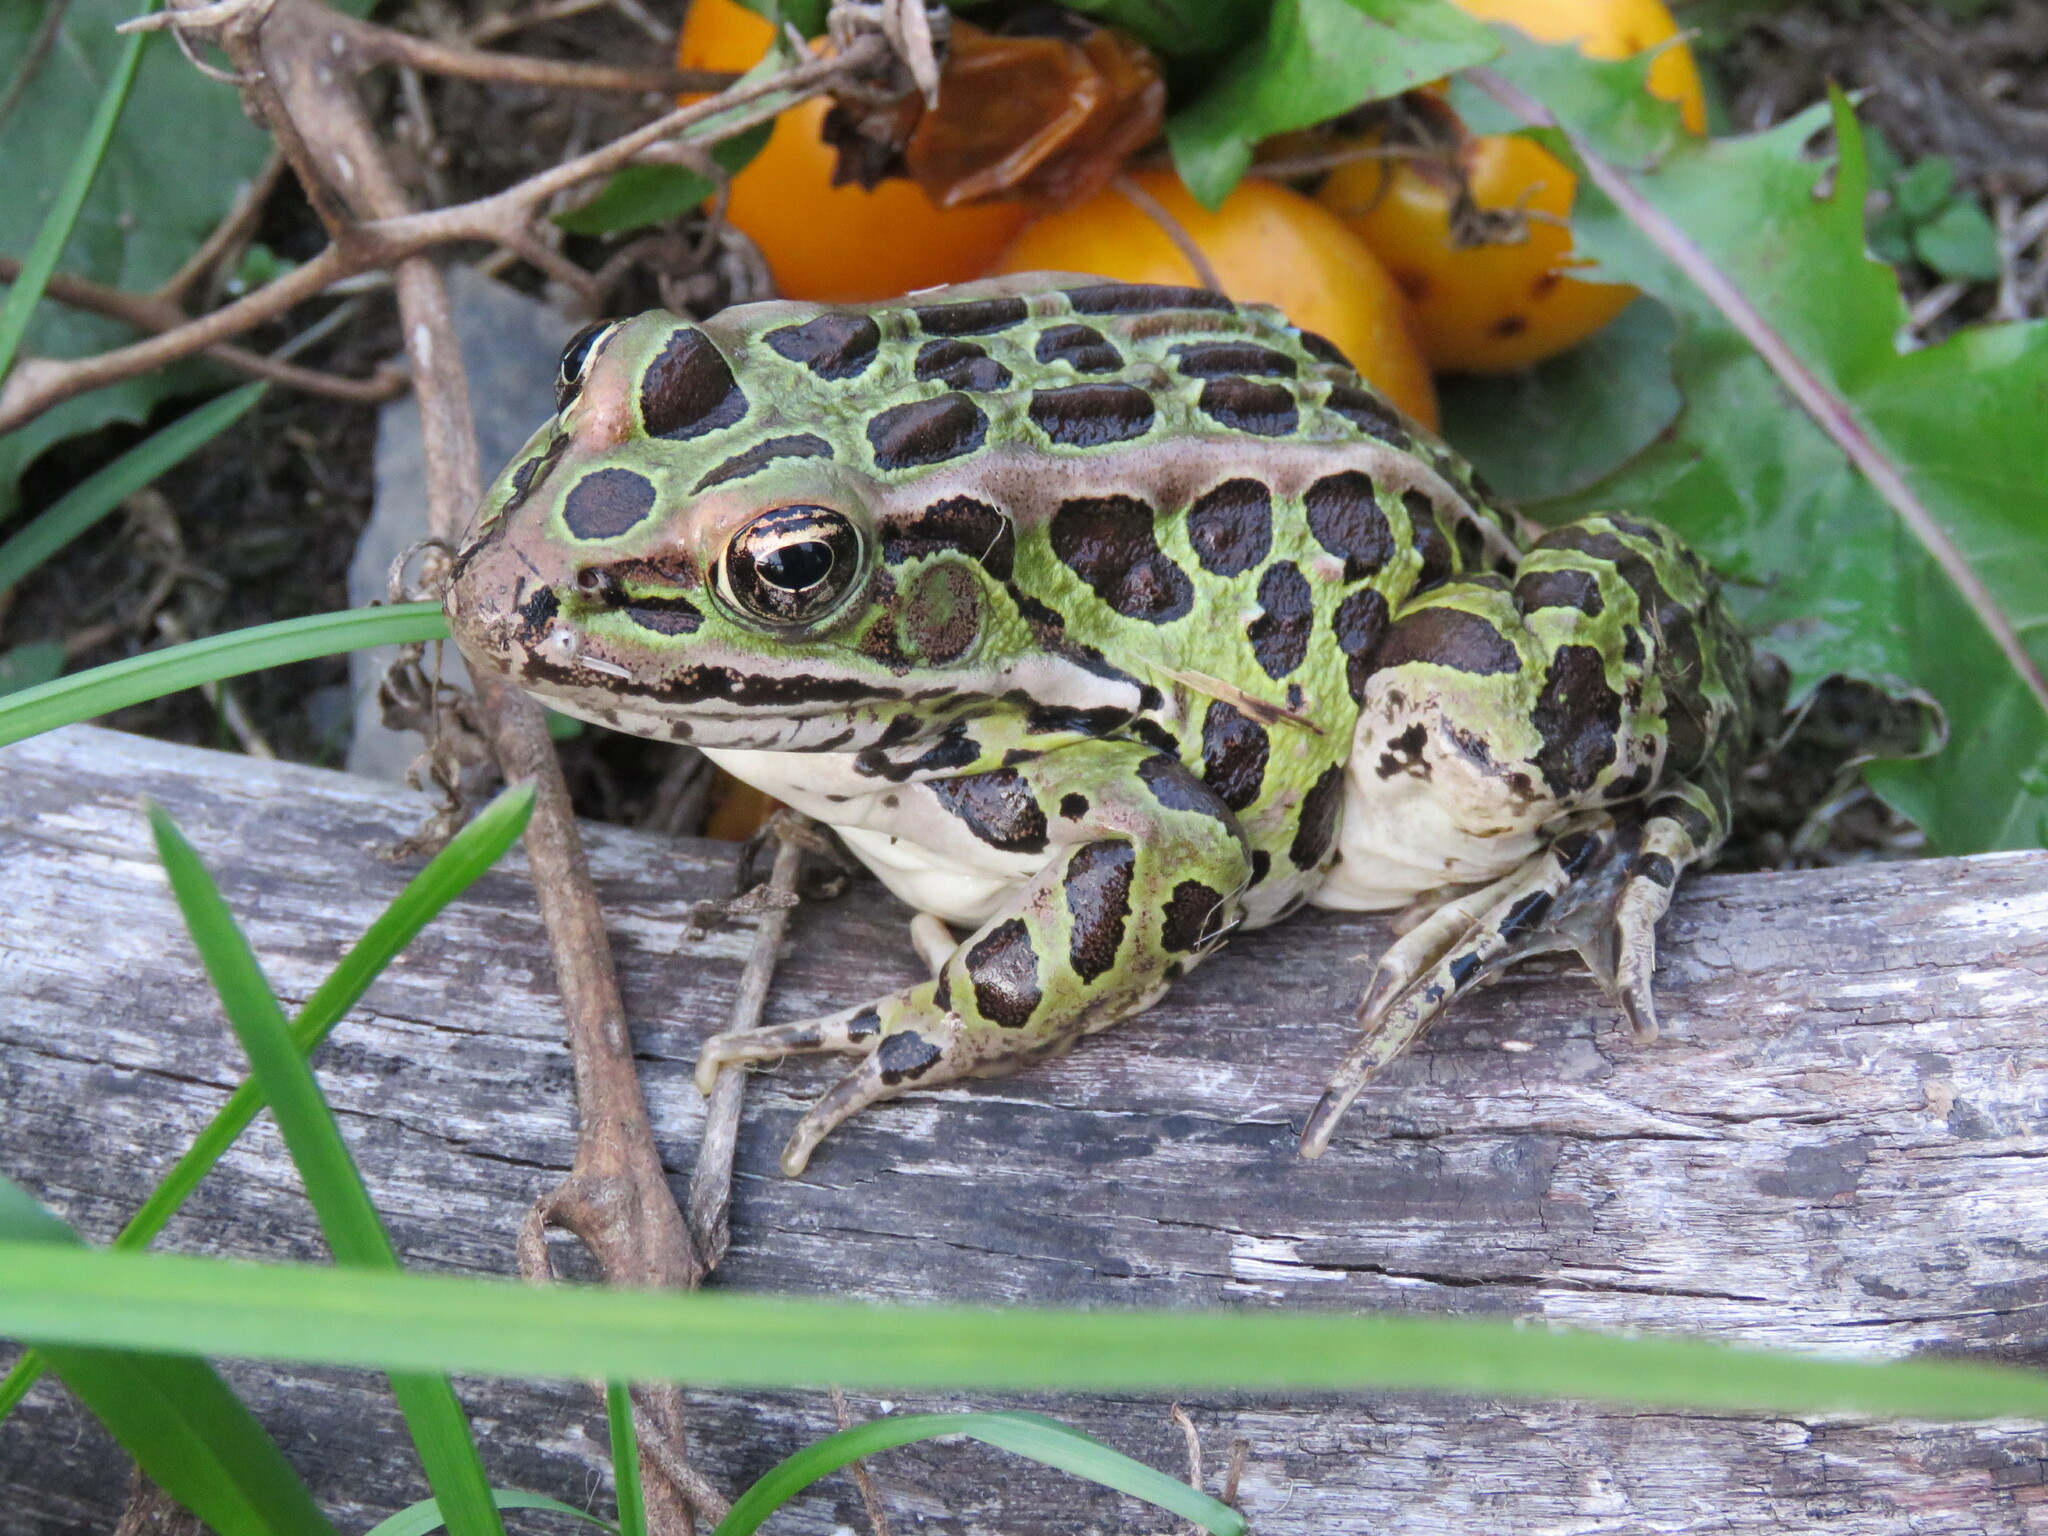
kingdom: Animalia
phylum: Chordata
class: Amphibia
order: Anura
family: Ranidae
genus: Lithobates
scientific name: Lithobates pipiens
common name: Northern leopard frog
